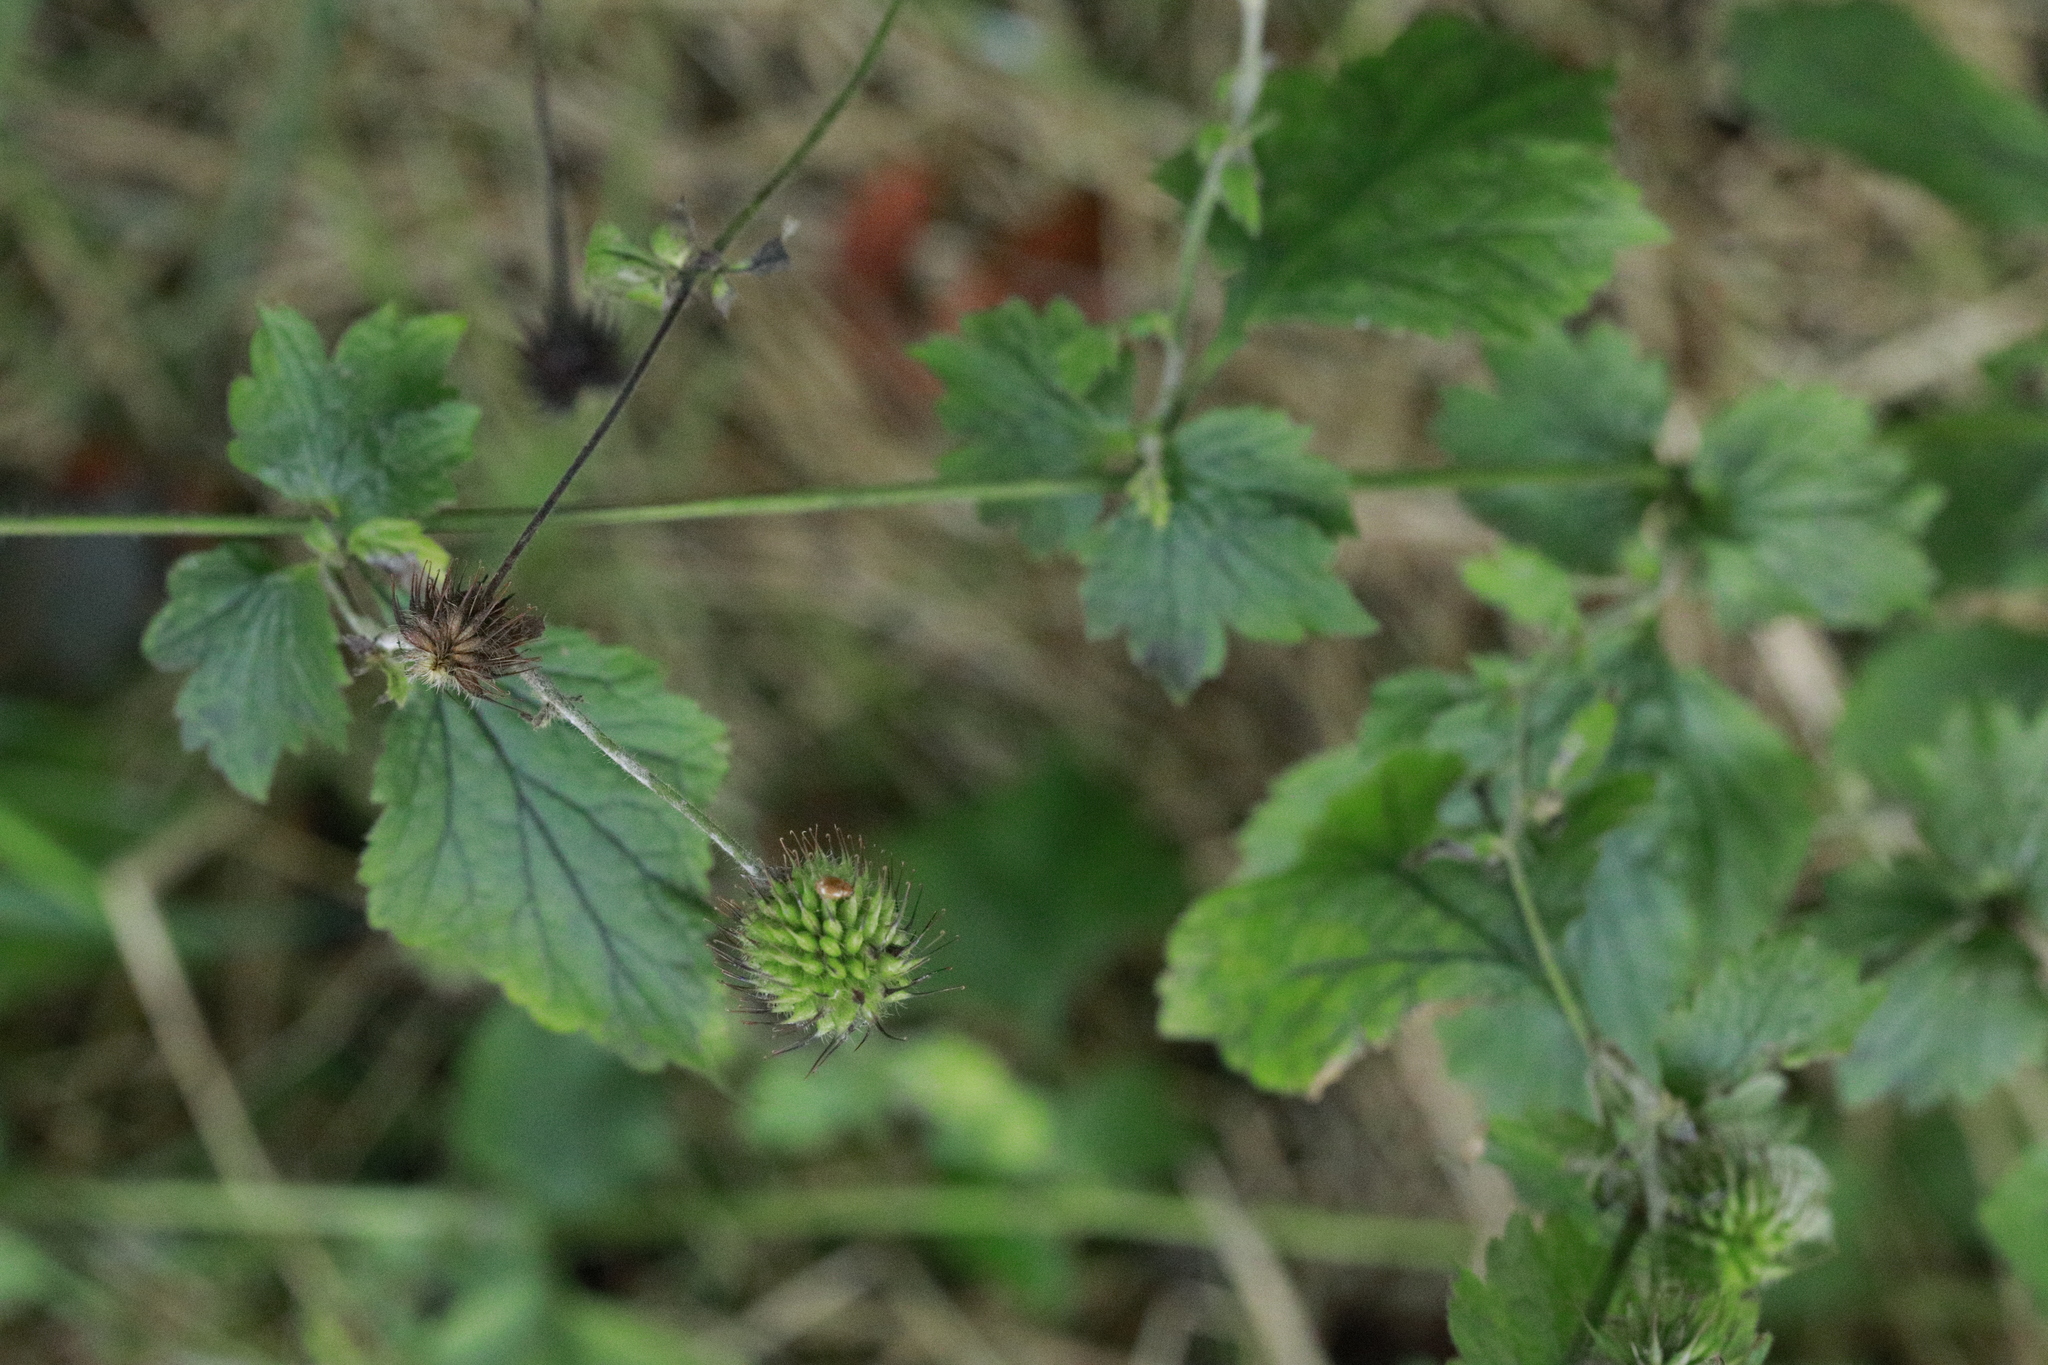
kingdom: Plantae
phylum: Tracheophyta
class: Magnoliopsida
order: Rosales
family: Rosaceae
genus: Geum
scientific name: Geum urbanum
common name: Wood avens
